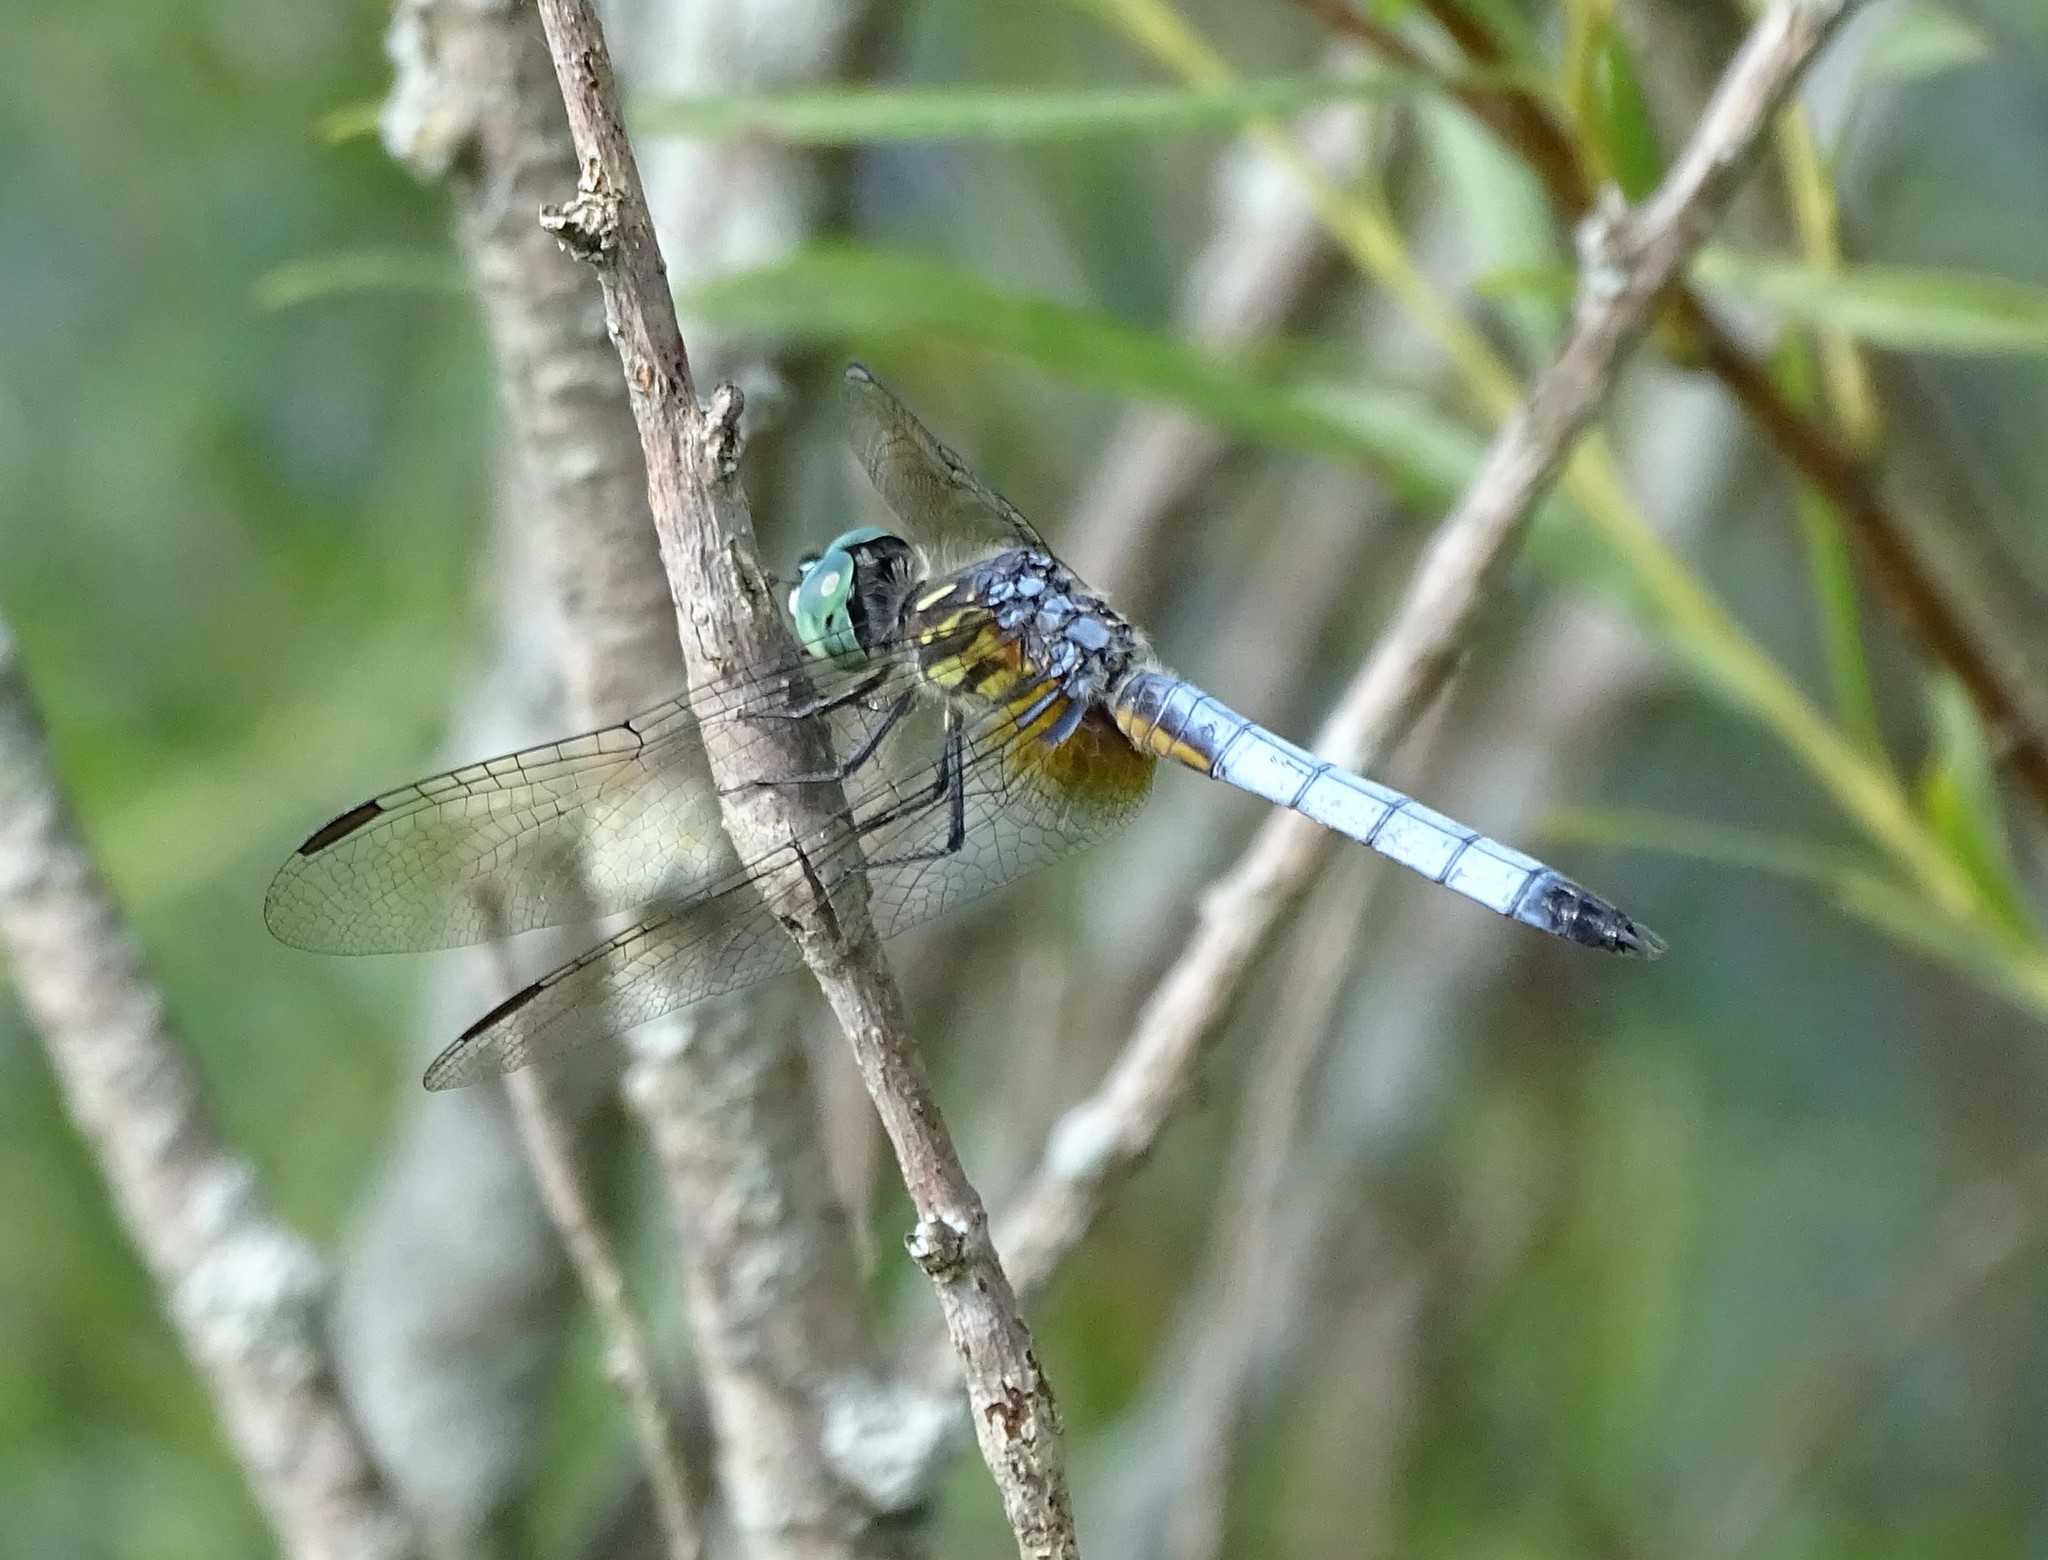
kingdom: Animalia
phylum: Arthropoda
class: Insecta
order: Odonata
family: Libellulidae
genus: Pachydiplax
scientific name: Pachydiplax longipennis
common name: Blue dasher
